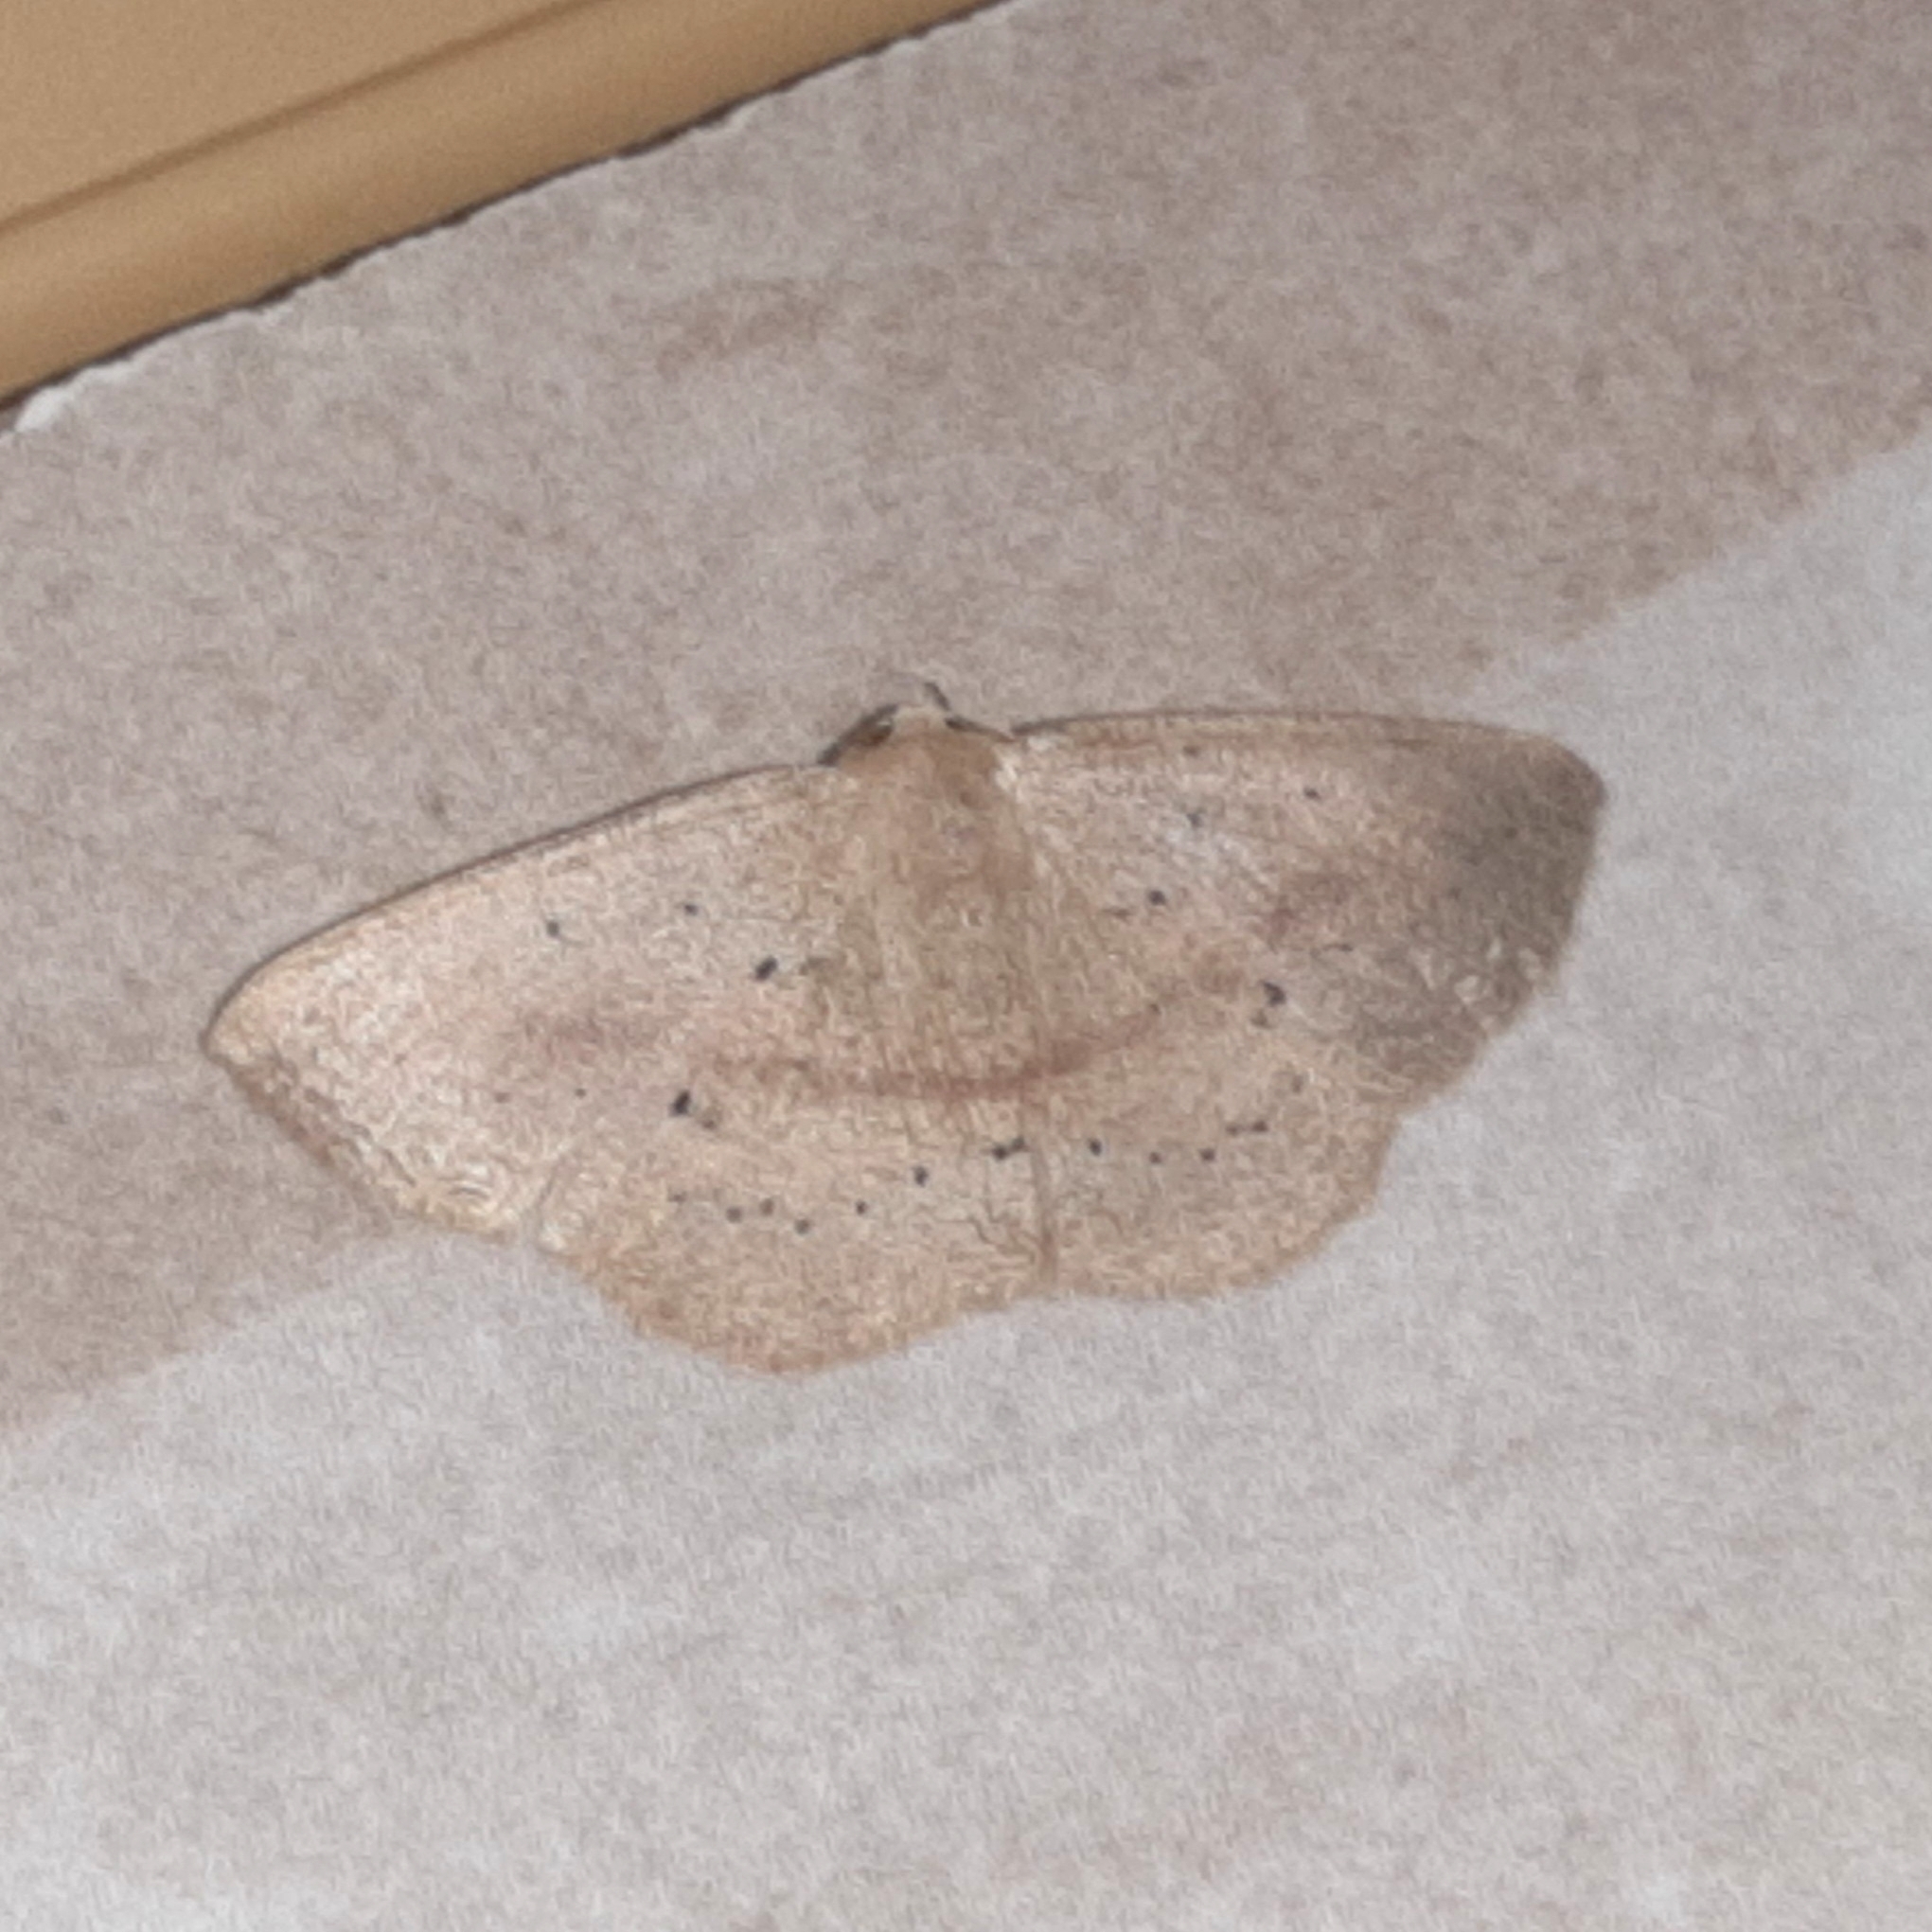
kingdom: Animalia
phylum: Arthropoda
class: Insecta
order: Lepidoptera
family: Geometridae
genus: Sabulodes
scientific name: Sabulodes colombiata
